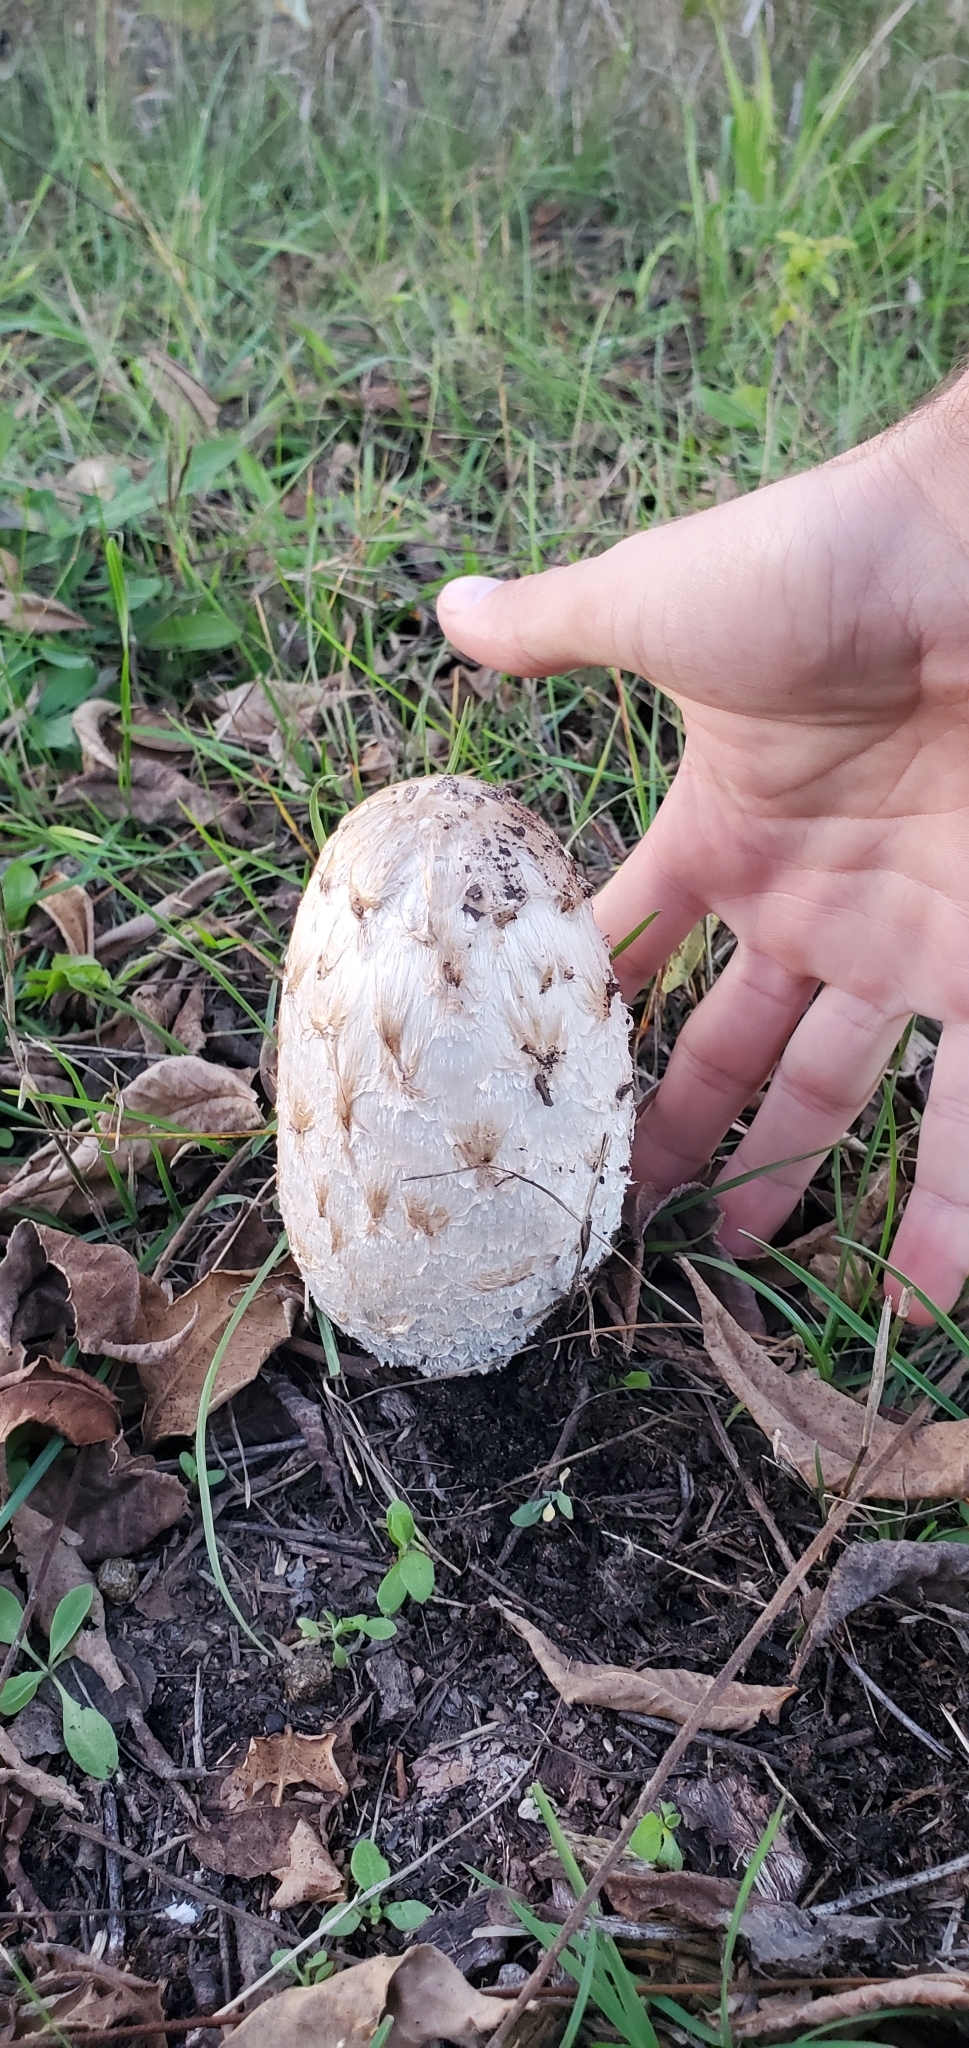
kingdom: Fungi
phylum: Basidiomycota
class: Agaricomycetes
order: Agaricales
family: Agaricaceae
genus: Coprinus
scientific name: Coprinus comatus
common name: Lawyer's wig
